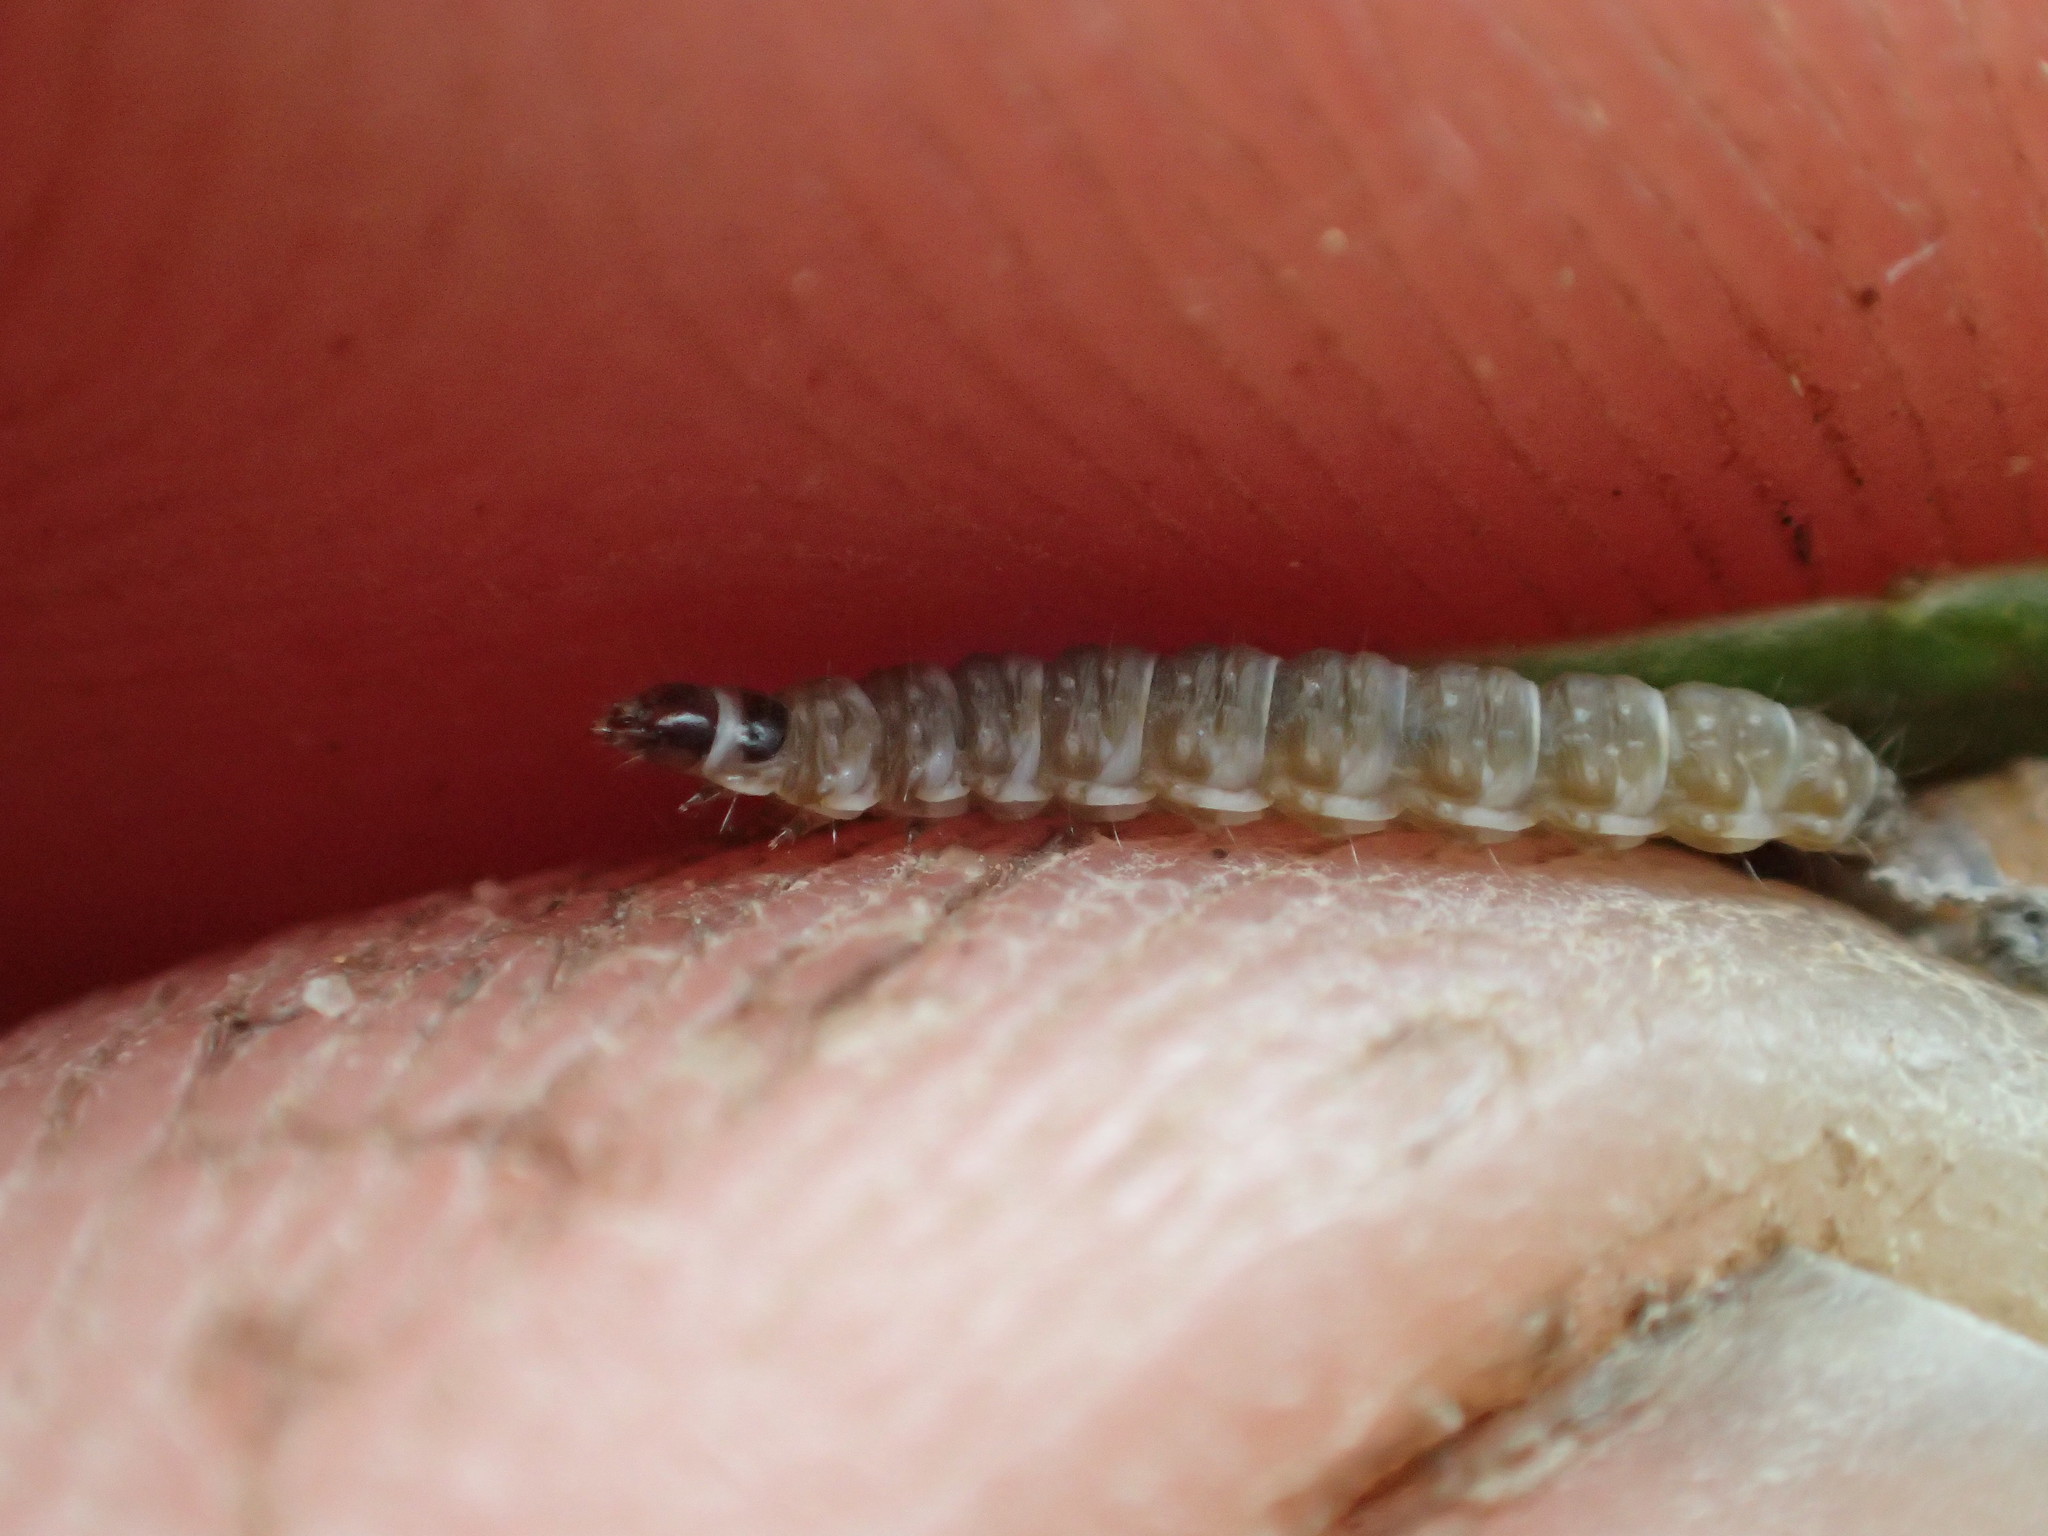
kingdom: Animalia
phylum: Arthropoda
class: Insecta
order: Lepidoptera
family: Batrachedridae
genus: Batrachedra
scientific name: Batrachedra praeangusta
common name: Poplar cosmet
